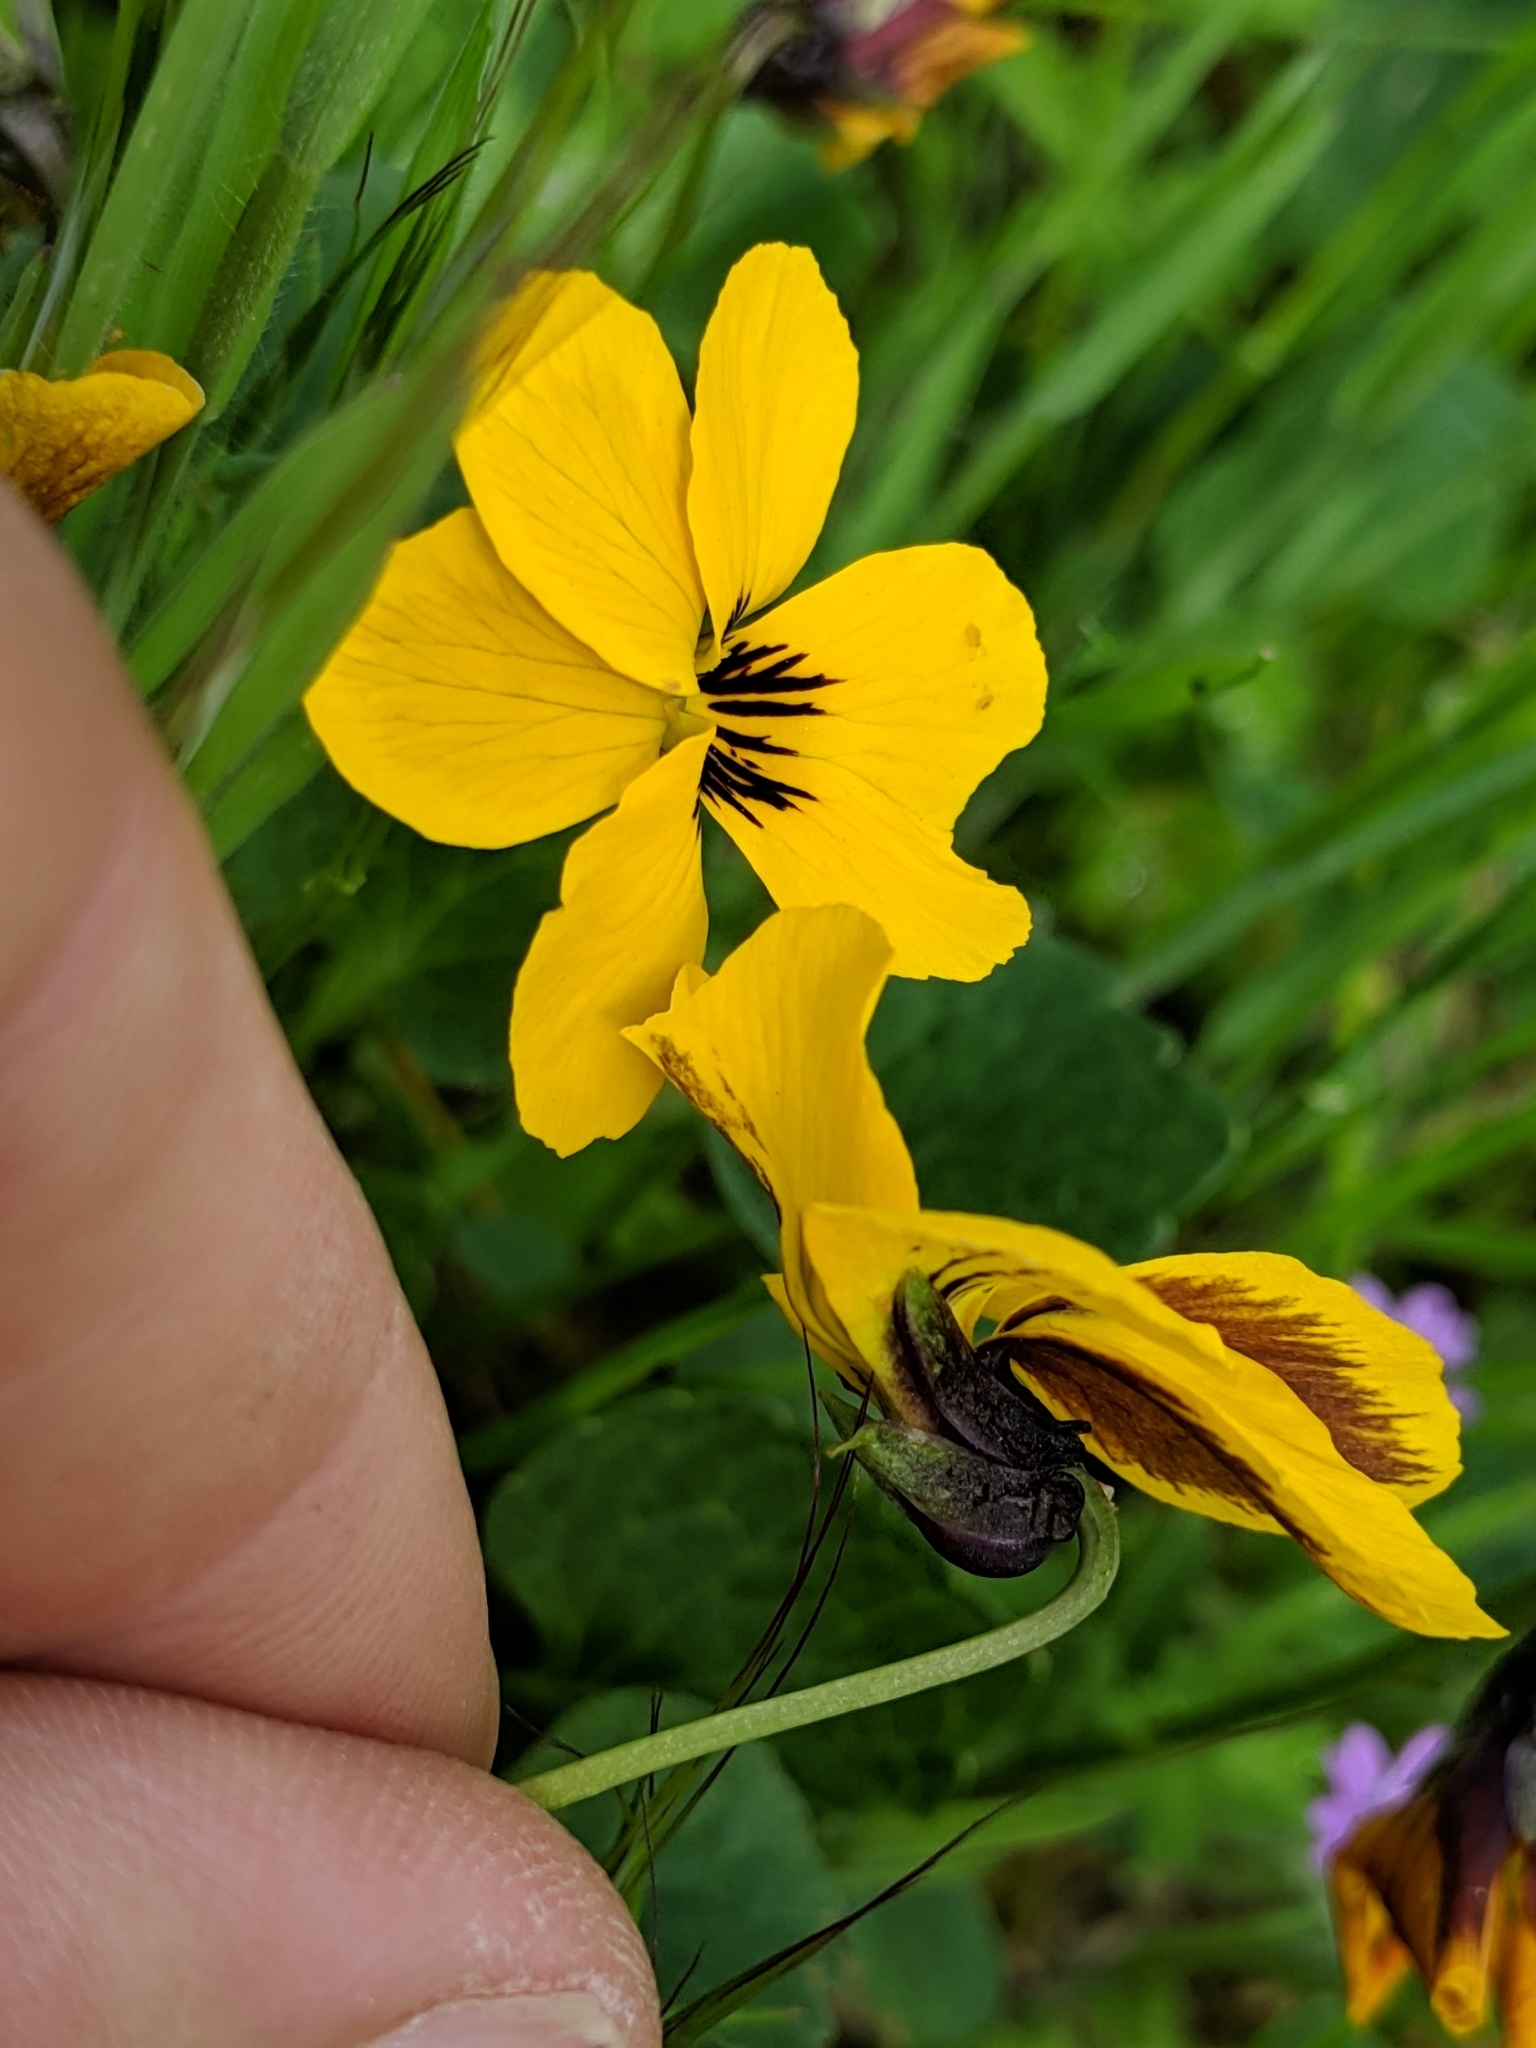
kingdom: Plantae
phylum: Tracheophyta
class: Magnoliopsida
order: Malpighiales
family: Violaceae
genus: Viola
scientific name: Viola pedunculata
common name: California golden violet
